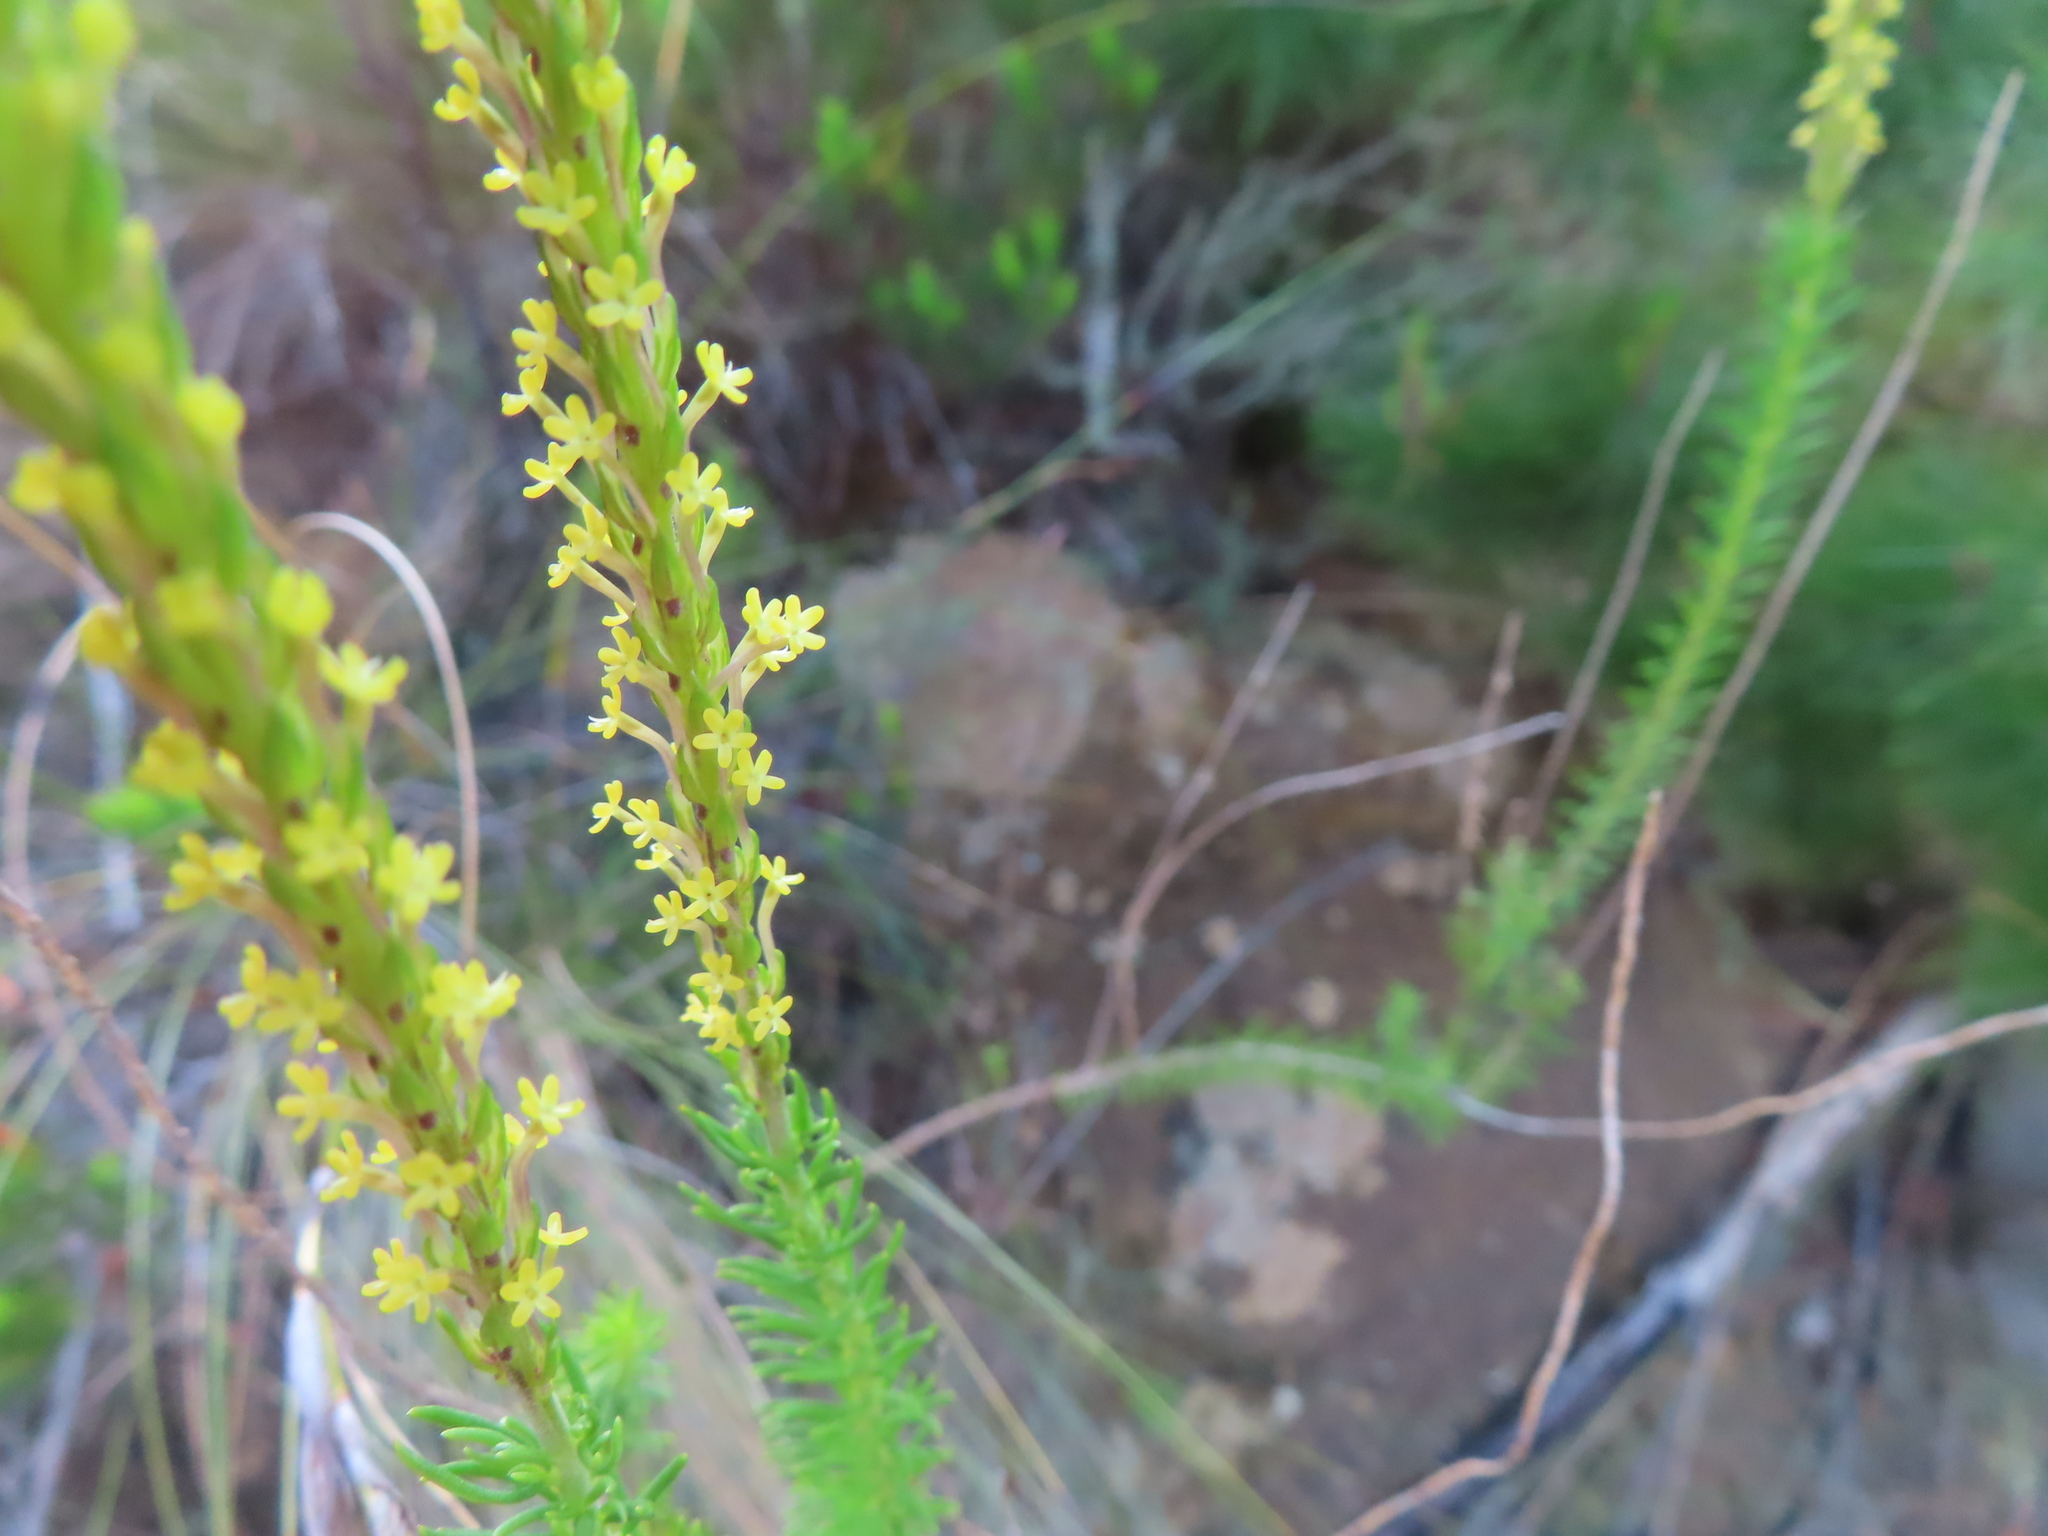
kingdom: Plantae
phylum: Tracheophyta
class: Magnoliopsida
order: Lamiales
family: Scrophulariaceae
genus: Microdon
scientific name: Microdon dubius
